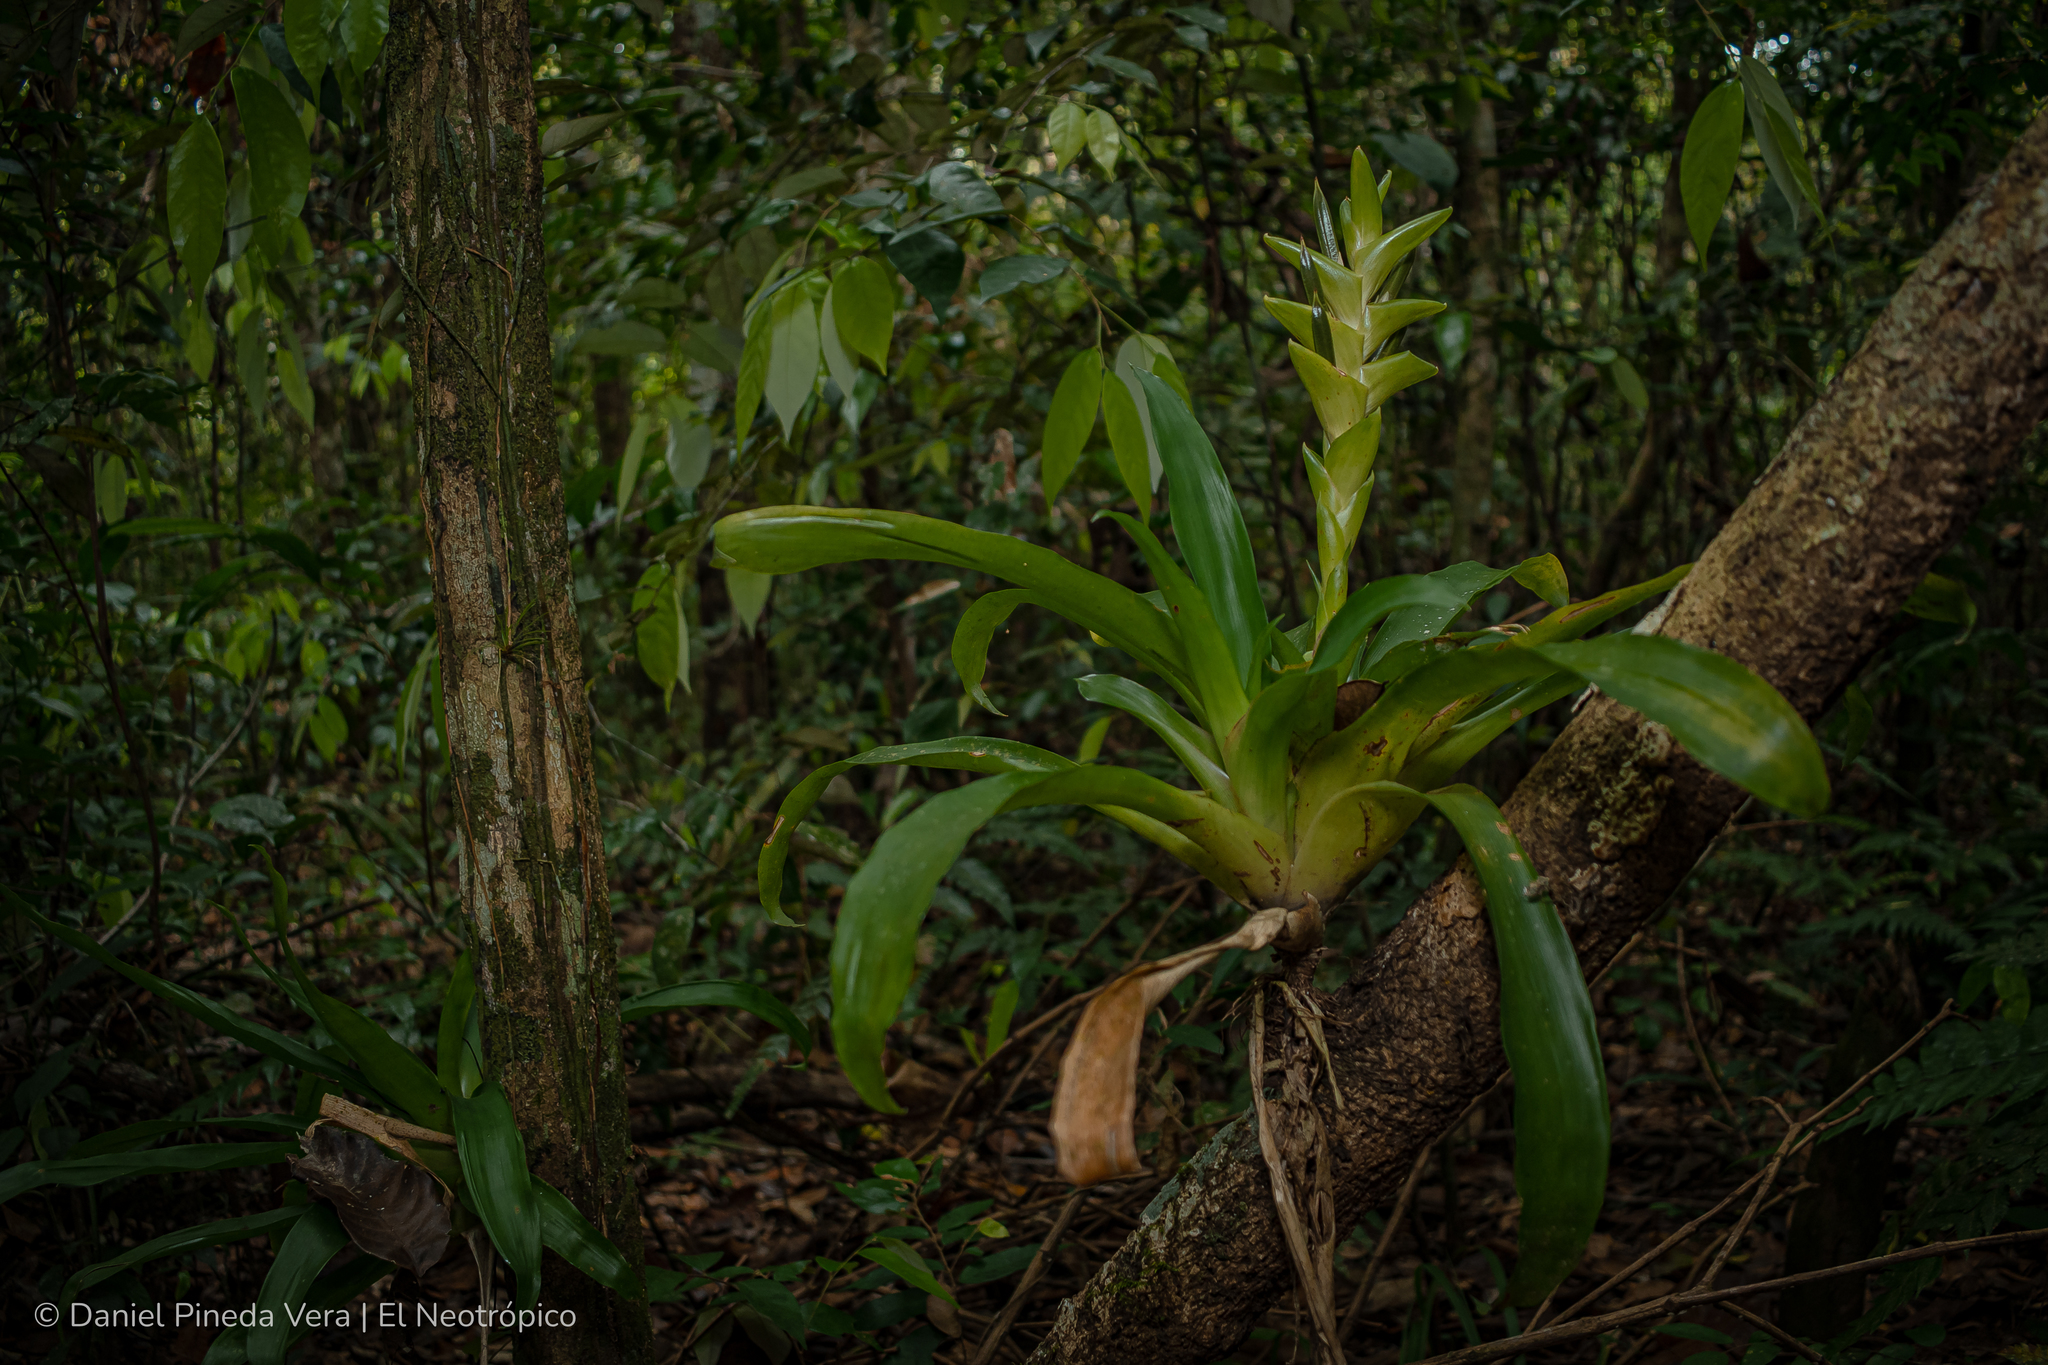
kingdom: Plantae
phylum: Tracheophyta
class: Liliopsida
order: Poales
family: Bromeliaceae
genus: Tillandsia
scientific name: Tillandsia heliconioides
